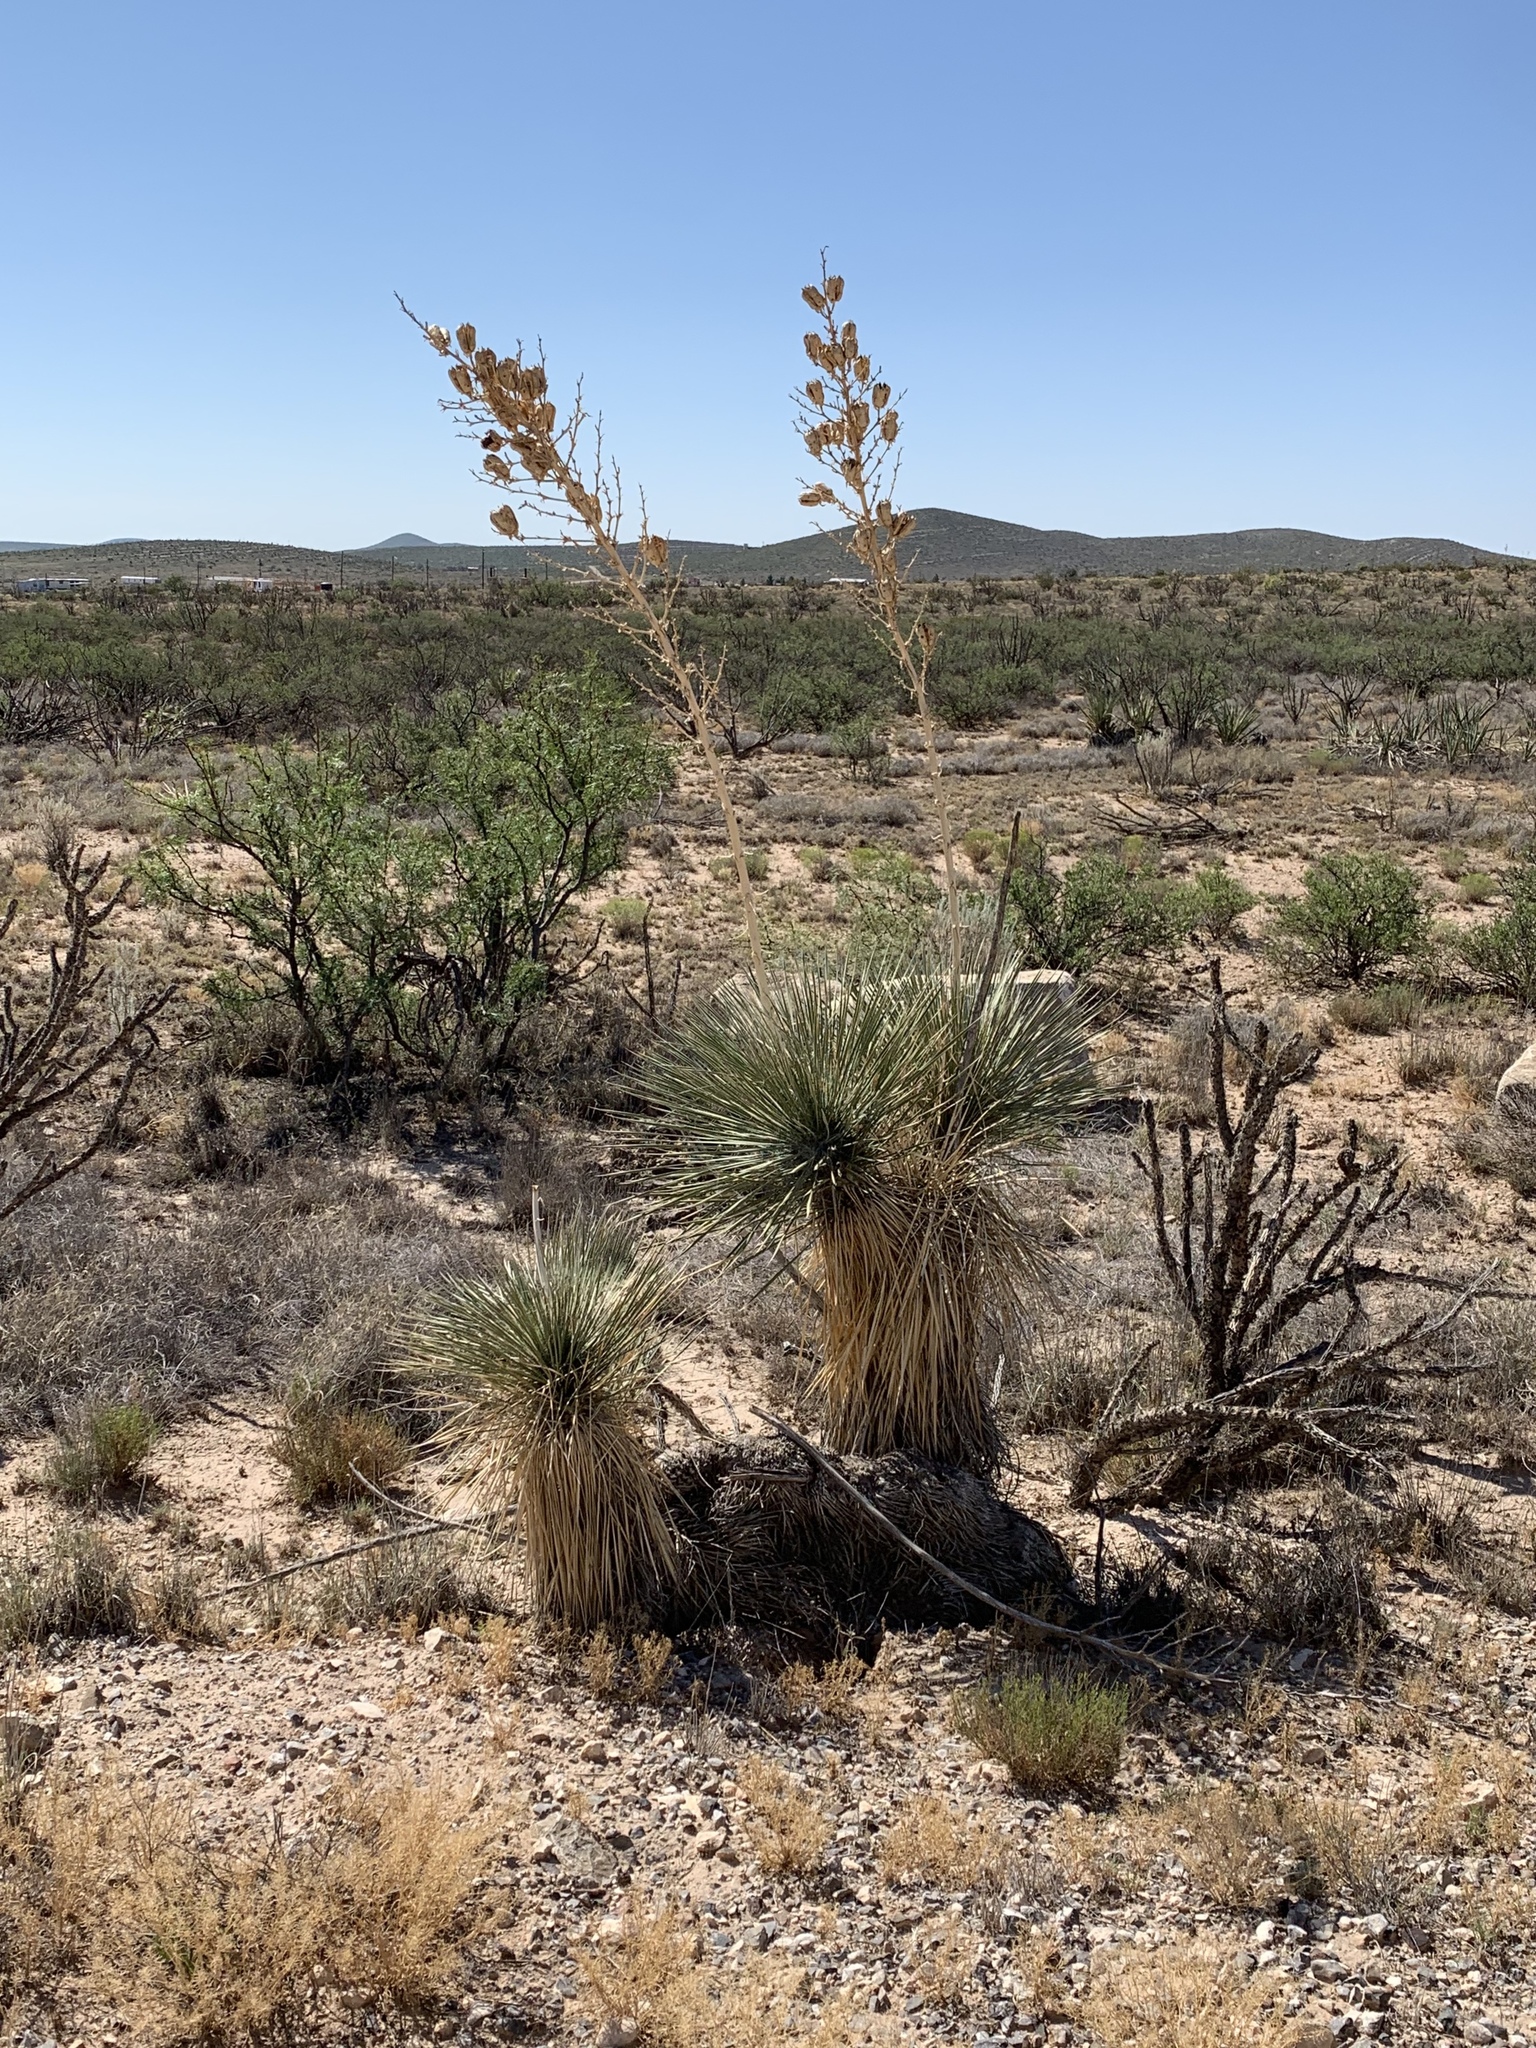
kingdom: Plantae
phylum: Tracheophyta
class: Liliopsida
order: Asparagales
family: Asparagaceae
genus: Yucca
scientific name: Yucca elata
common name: Palmella
